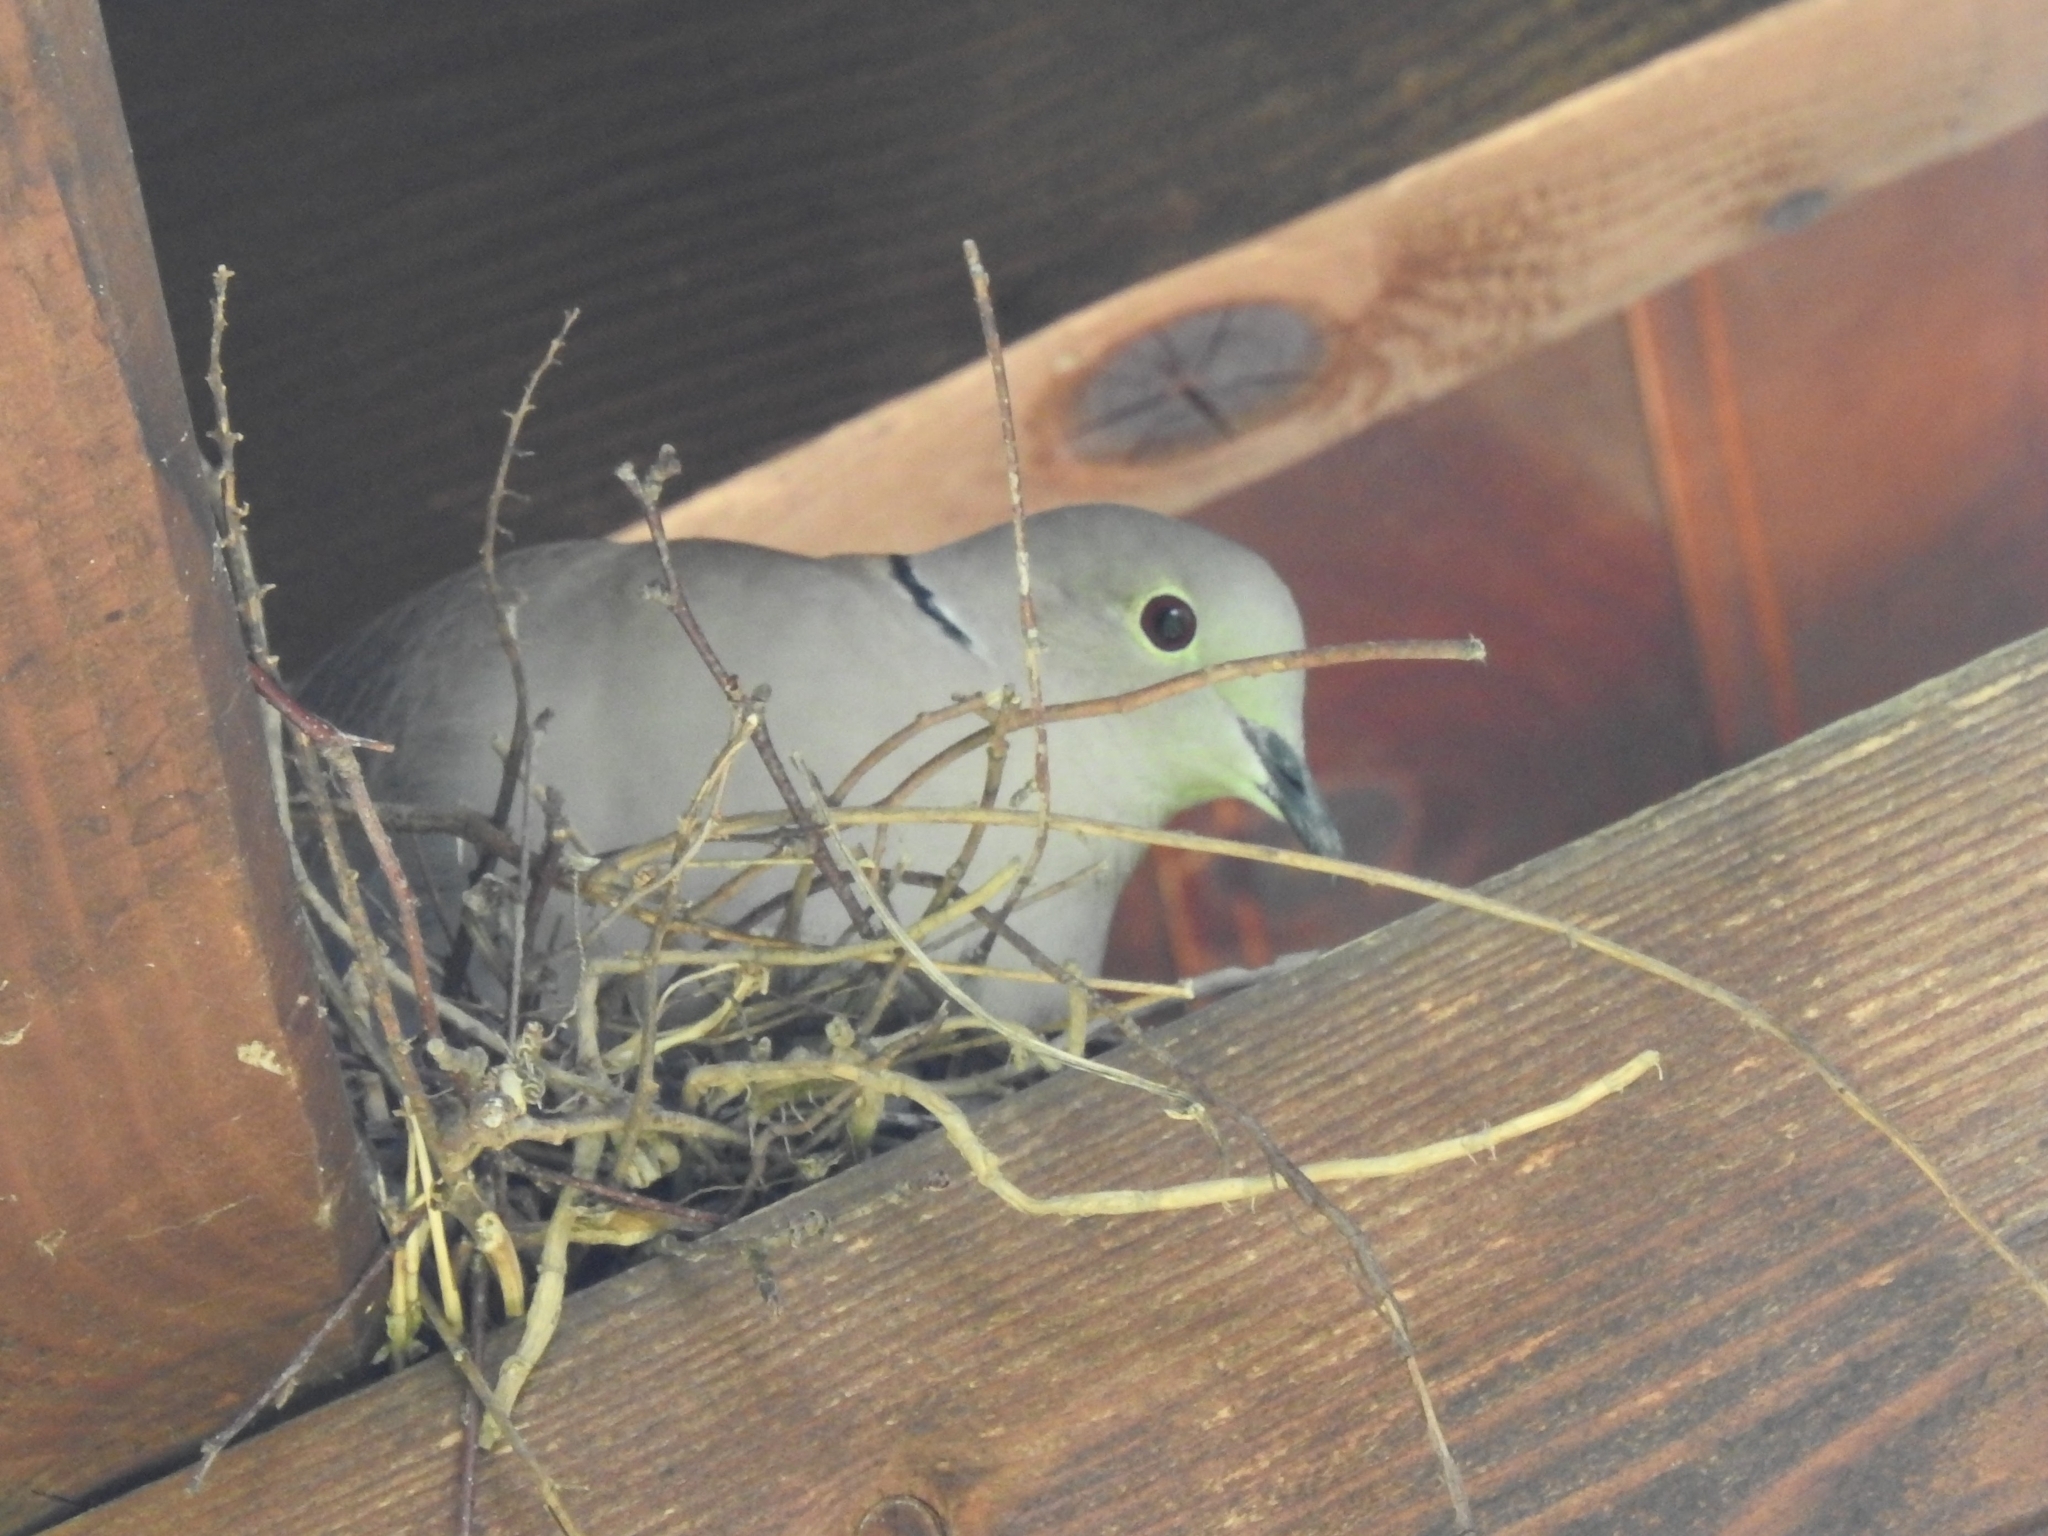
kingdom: Animalia
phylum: Chordata
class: Aves
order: Columbiformes
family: Columbidae
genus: Streptopelia
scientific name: Streptopelia decaocto
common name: Eurasian collared dove
